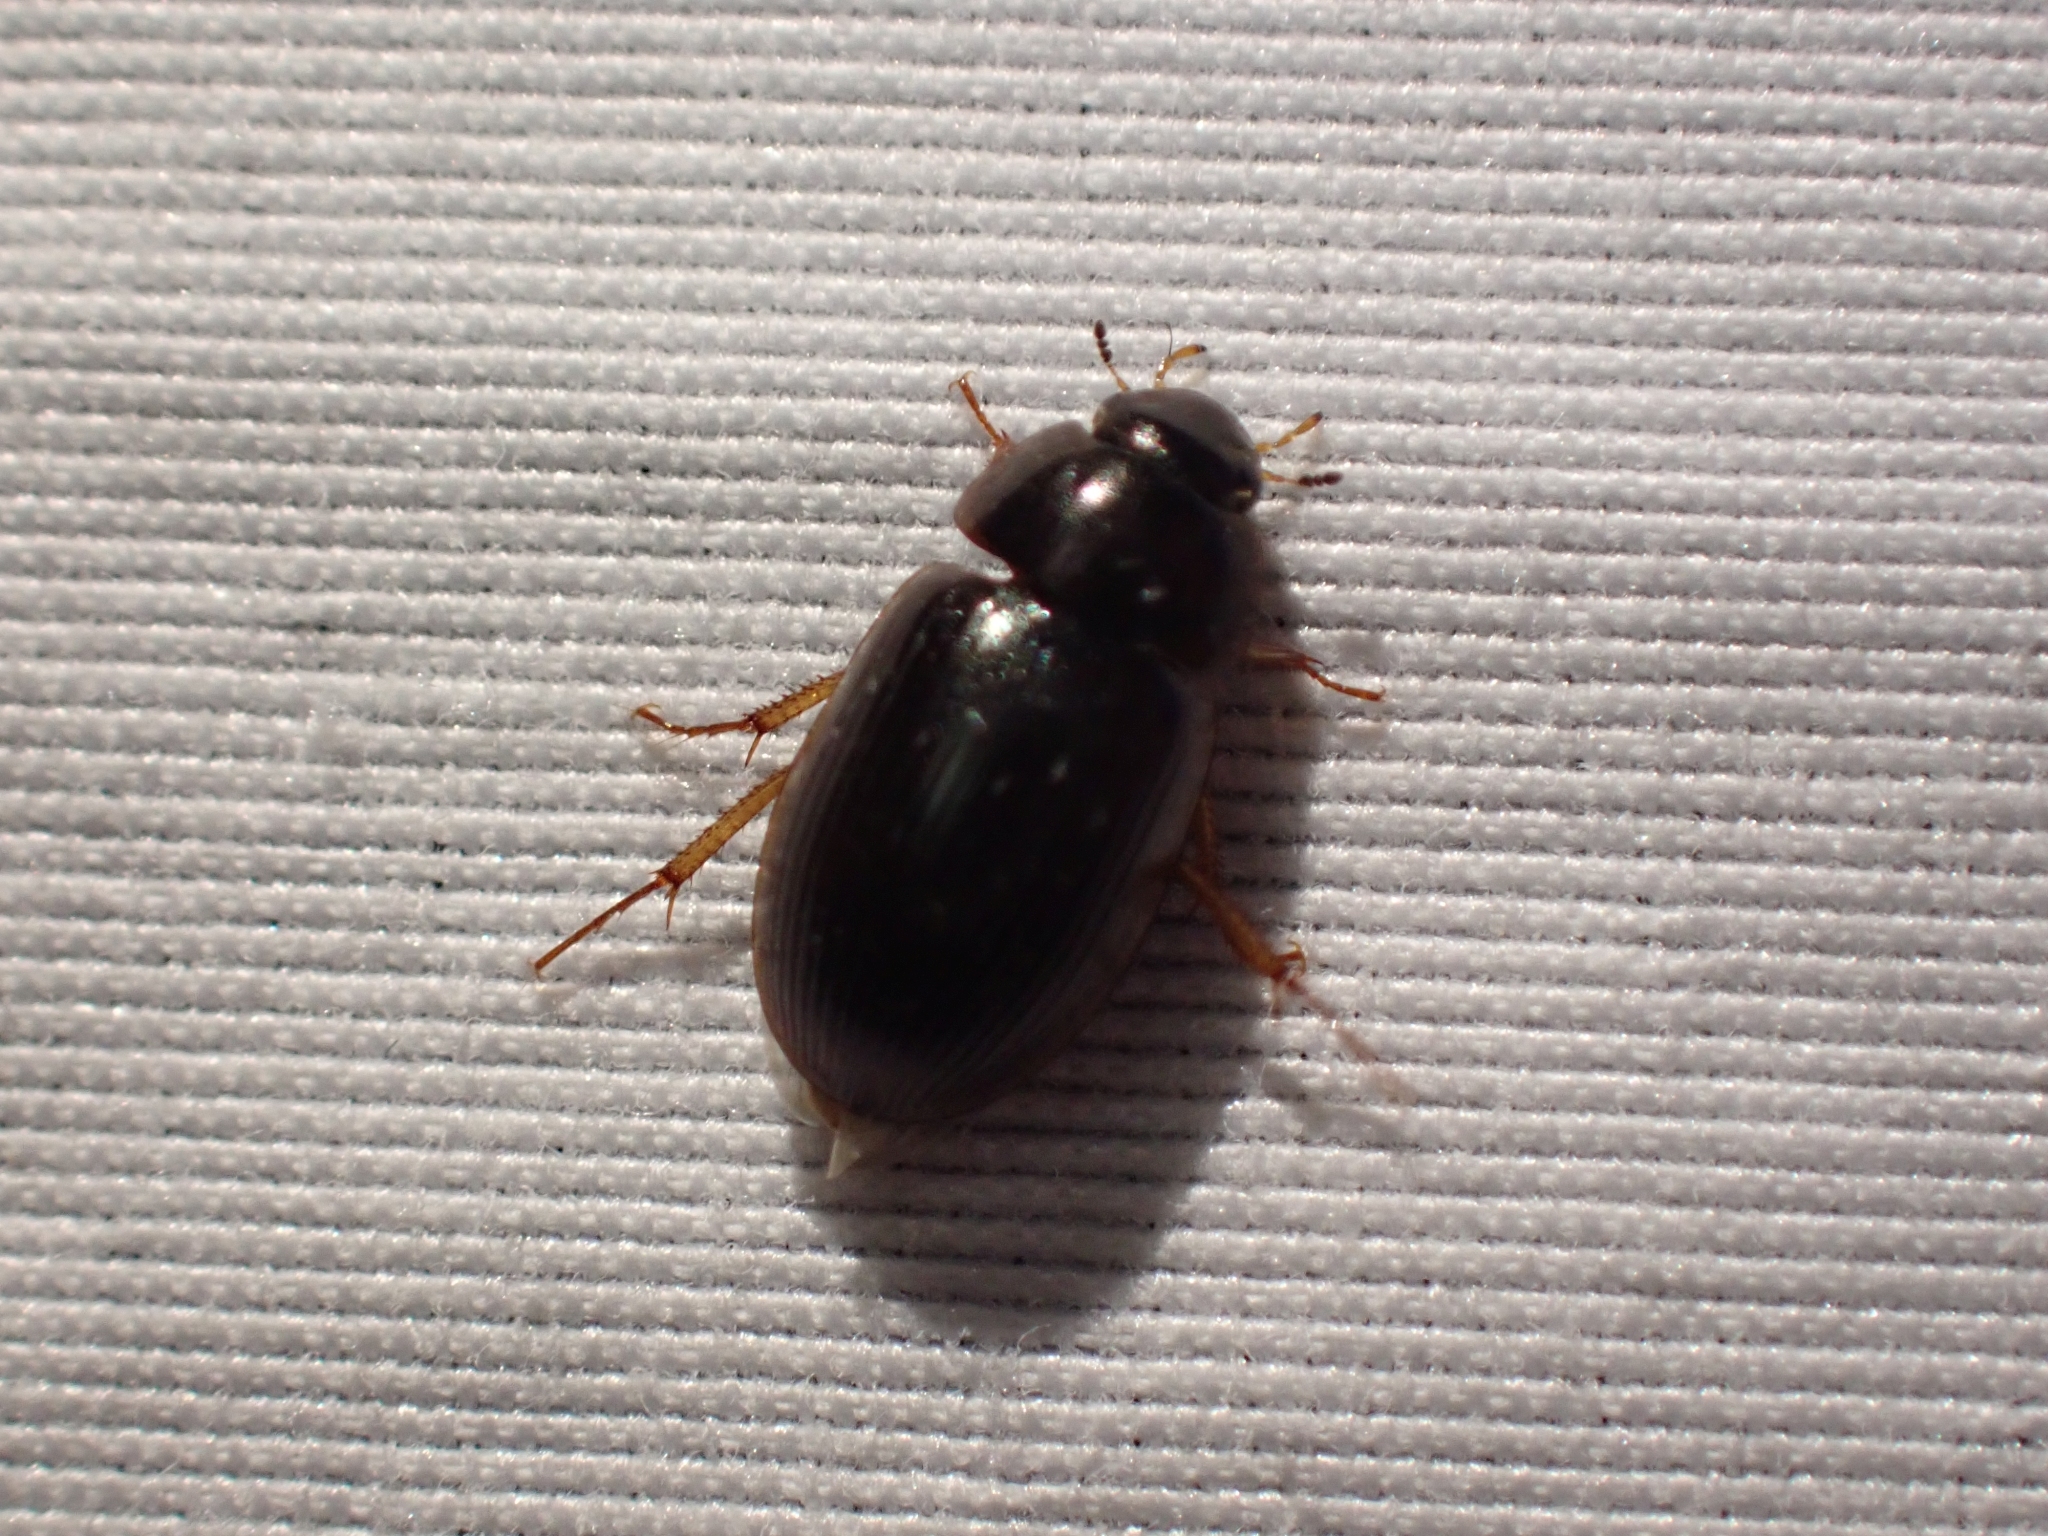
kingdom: Animalia
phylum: Arthropoda
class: Insecta
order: Coleoptera
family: Hydrophilidae
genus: Hydrobius
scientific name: Hydrobius fuscipes
